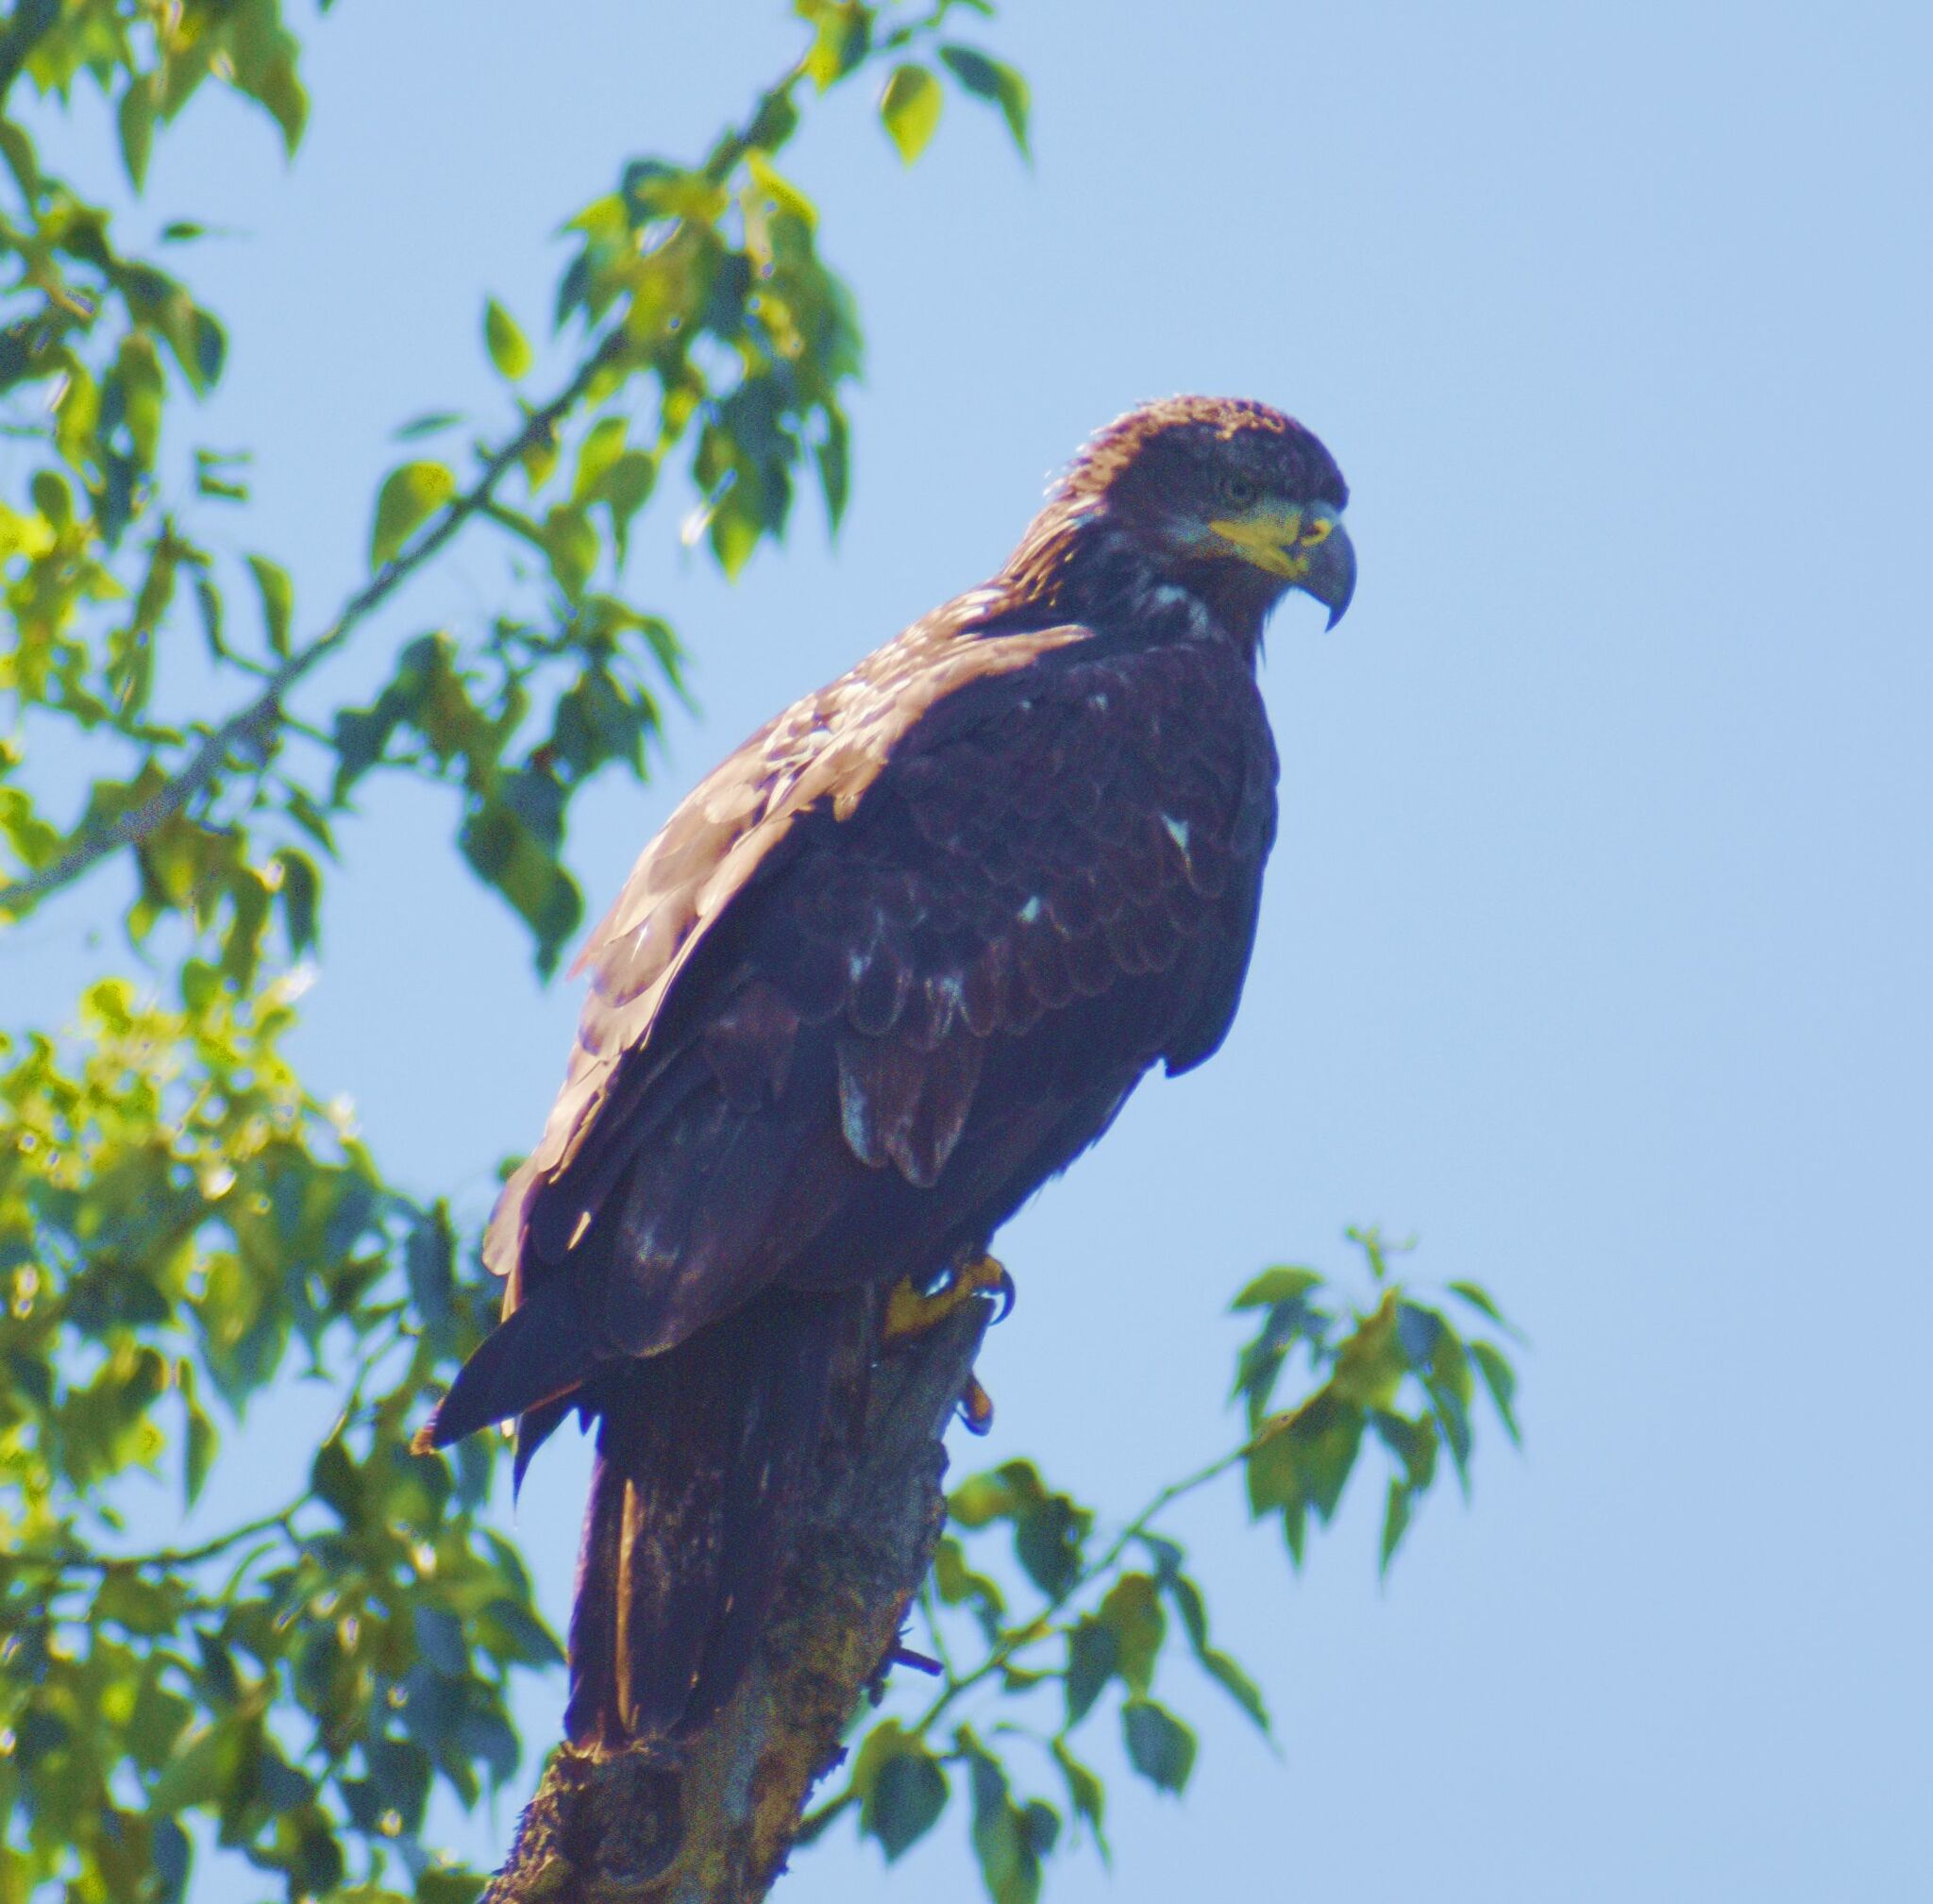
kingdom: Animalia
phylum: Chordata
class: Aves
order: Accipitriformes
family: Accipitridae
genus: Haliaeetus
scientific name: Haliaeetus leucocephalus
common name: Bald eagle
